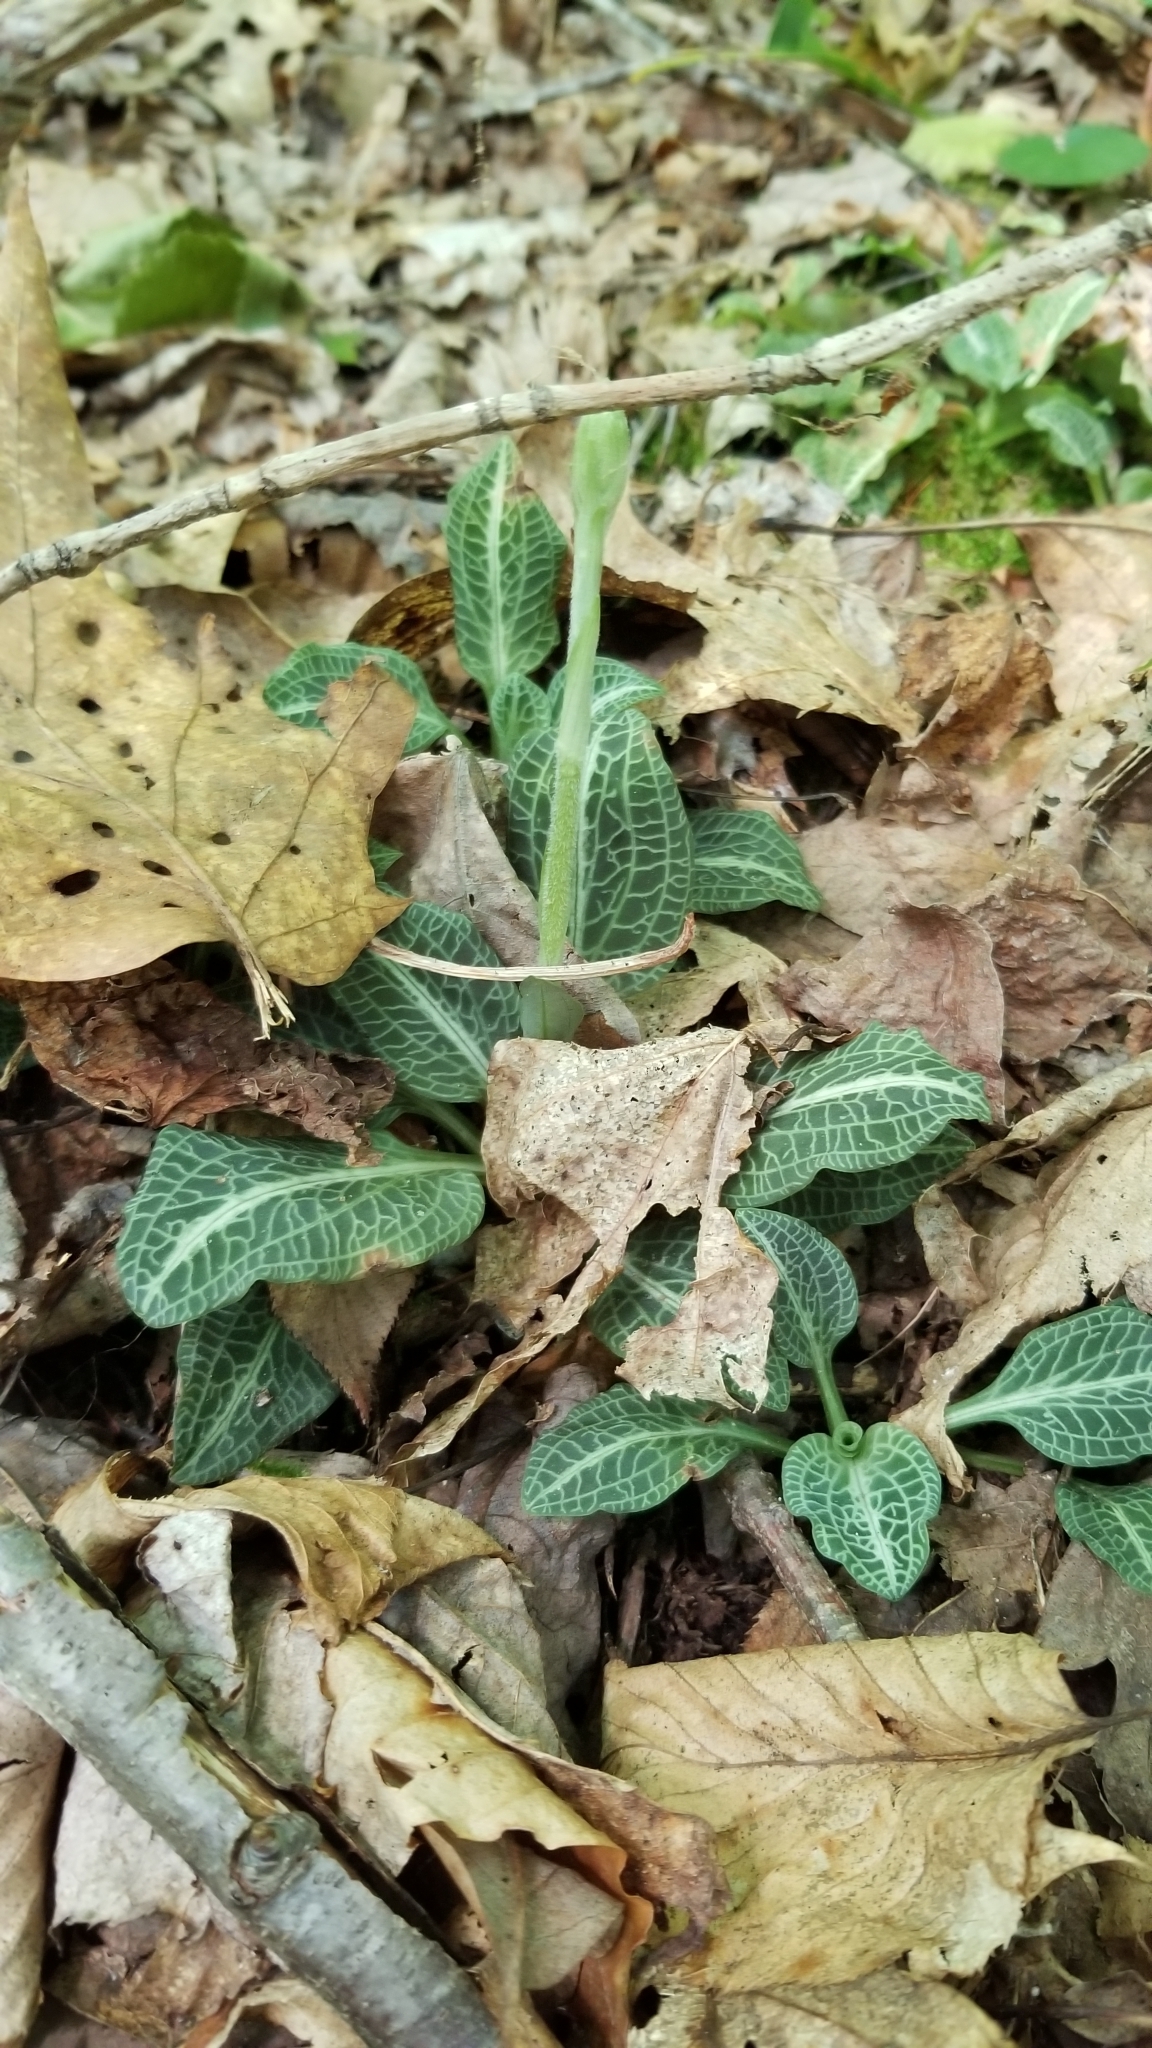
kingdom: Plantae
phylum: Tracheophyta
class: Liliopsida
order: Asparagales
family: Orchidaceae
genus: Goodyera
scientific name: Goodyera pubescens
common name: Downy rattlesnake-plantain
